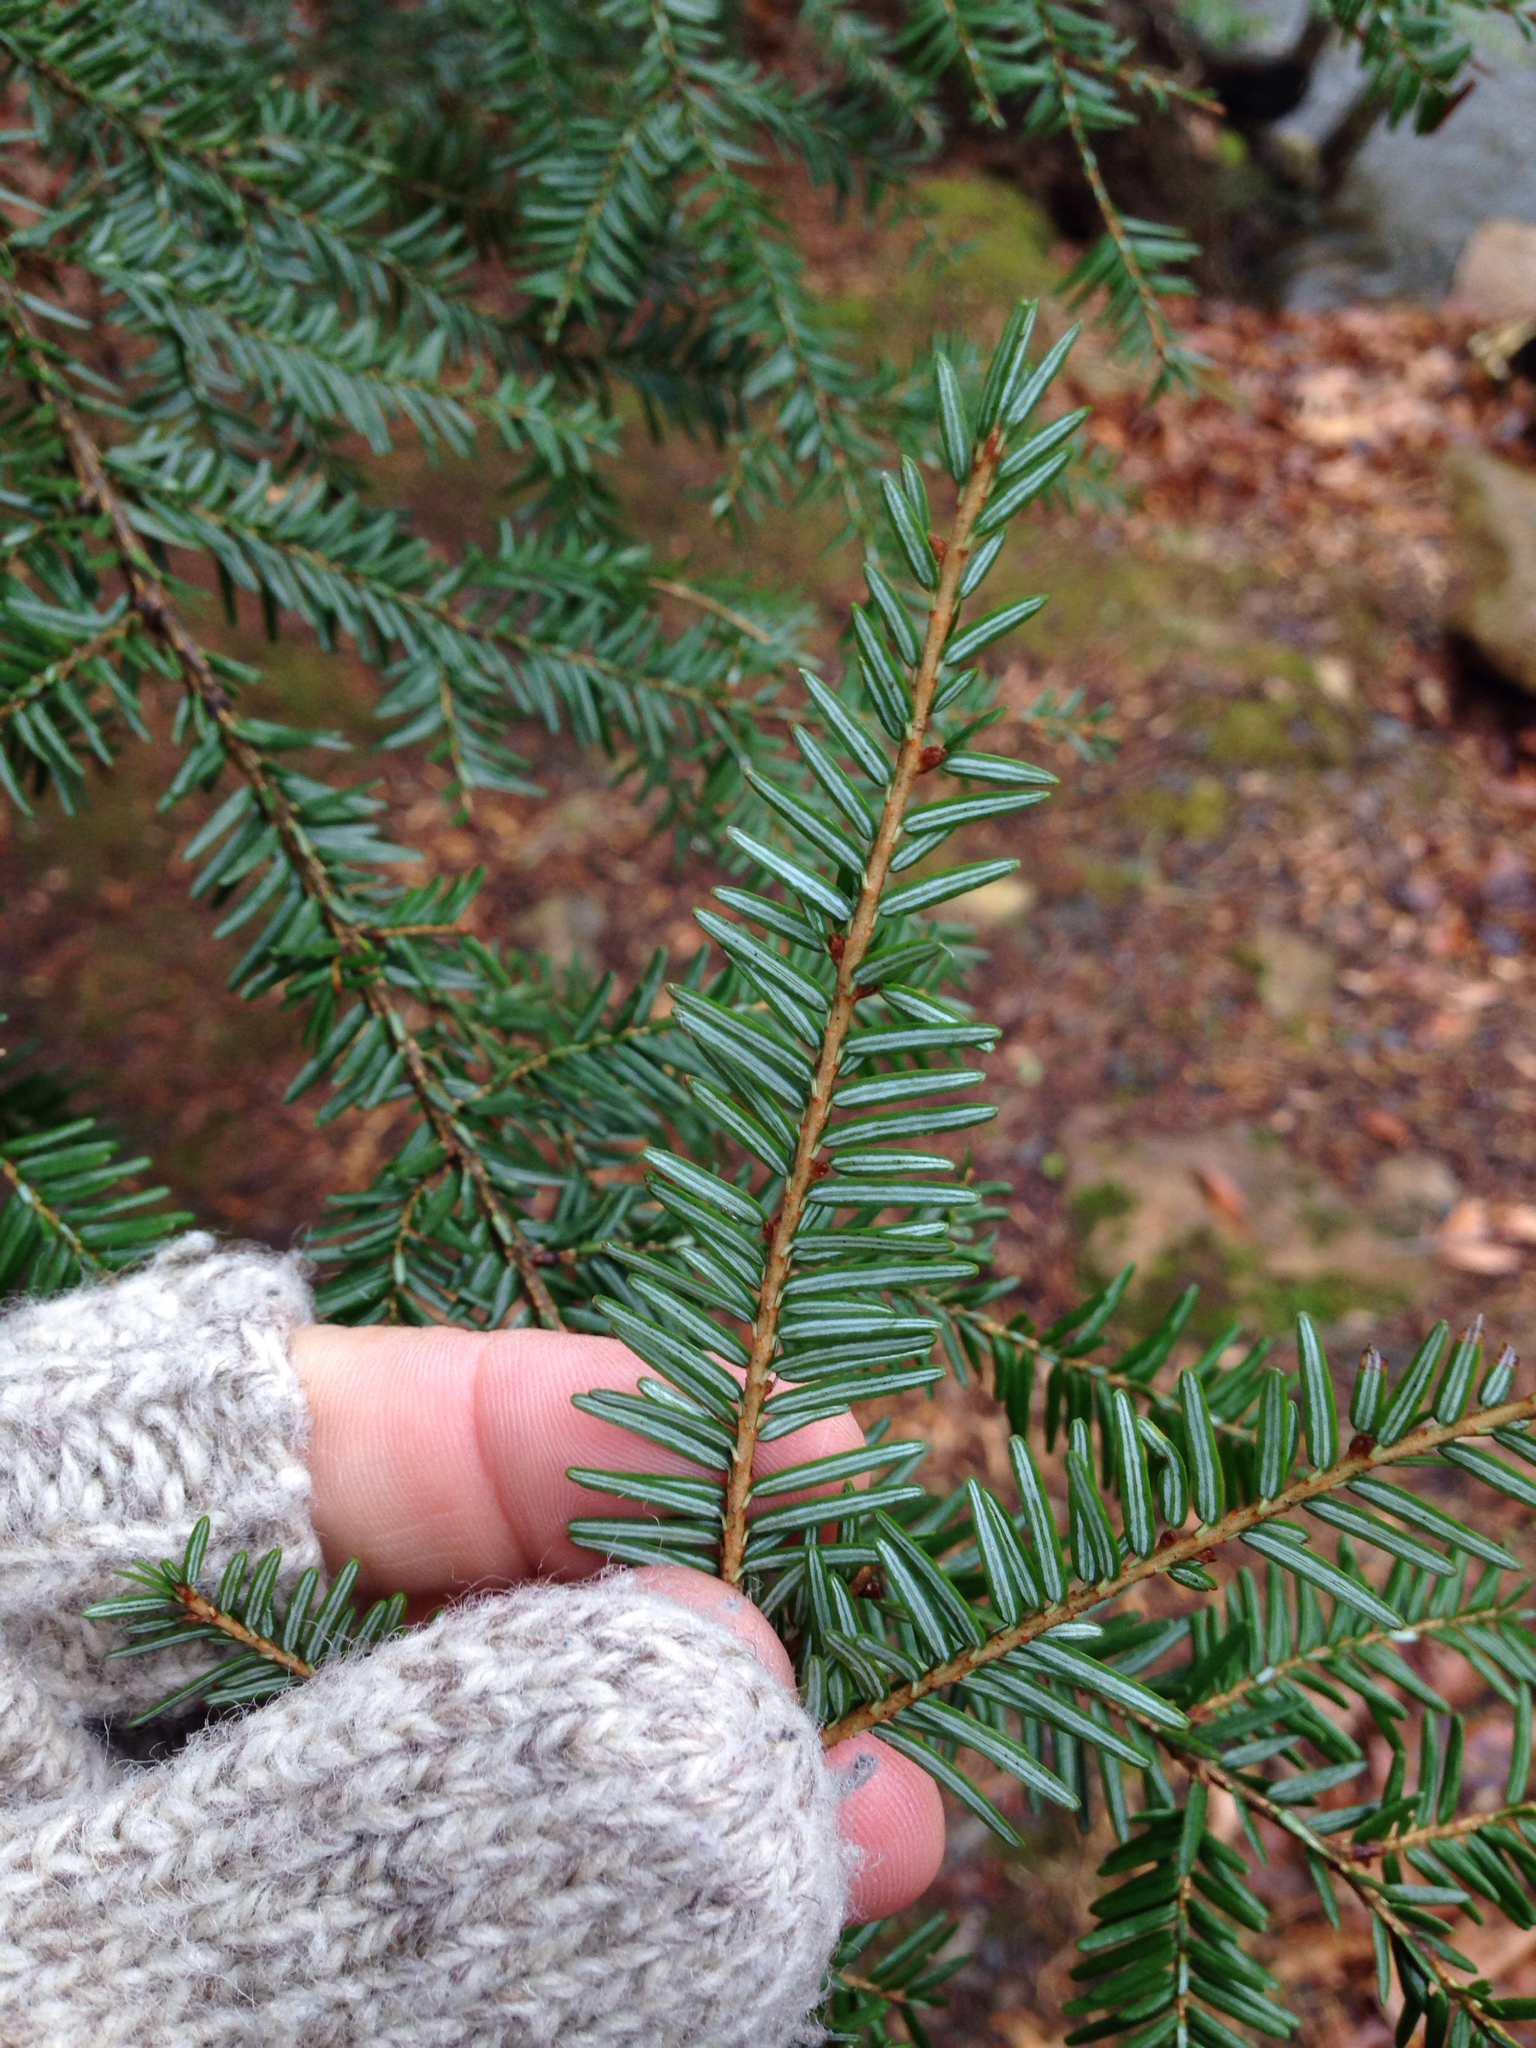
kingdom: Plantae
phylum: Tracheophyta
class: Pinopsida
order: Pinales
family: Pinaceae
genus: Tsuga
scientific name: Tsuga canadensis
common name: Eastern hemlock
